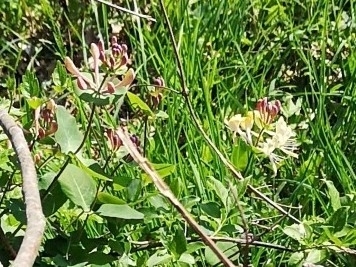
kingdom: Plantae
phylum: Tracheophyta
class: Magnoliopsida
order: Dipsacales
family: Caprifoliaceae
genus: Lonicera
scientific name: Lonicera caprifolium
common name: Perfoliate honeysuckle
